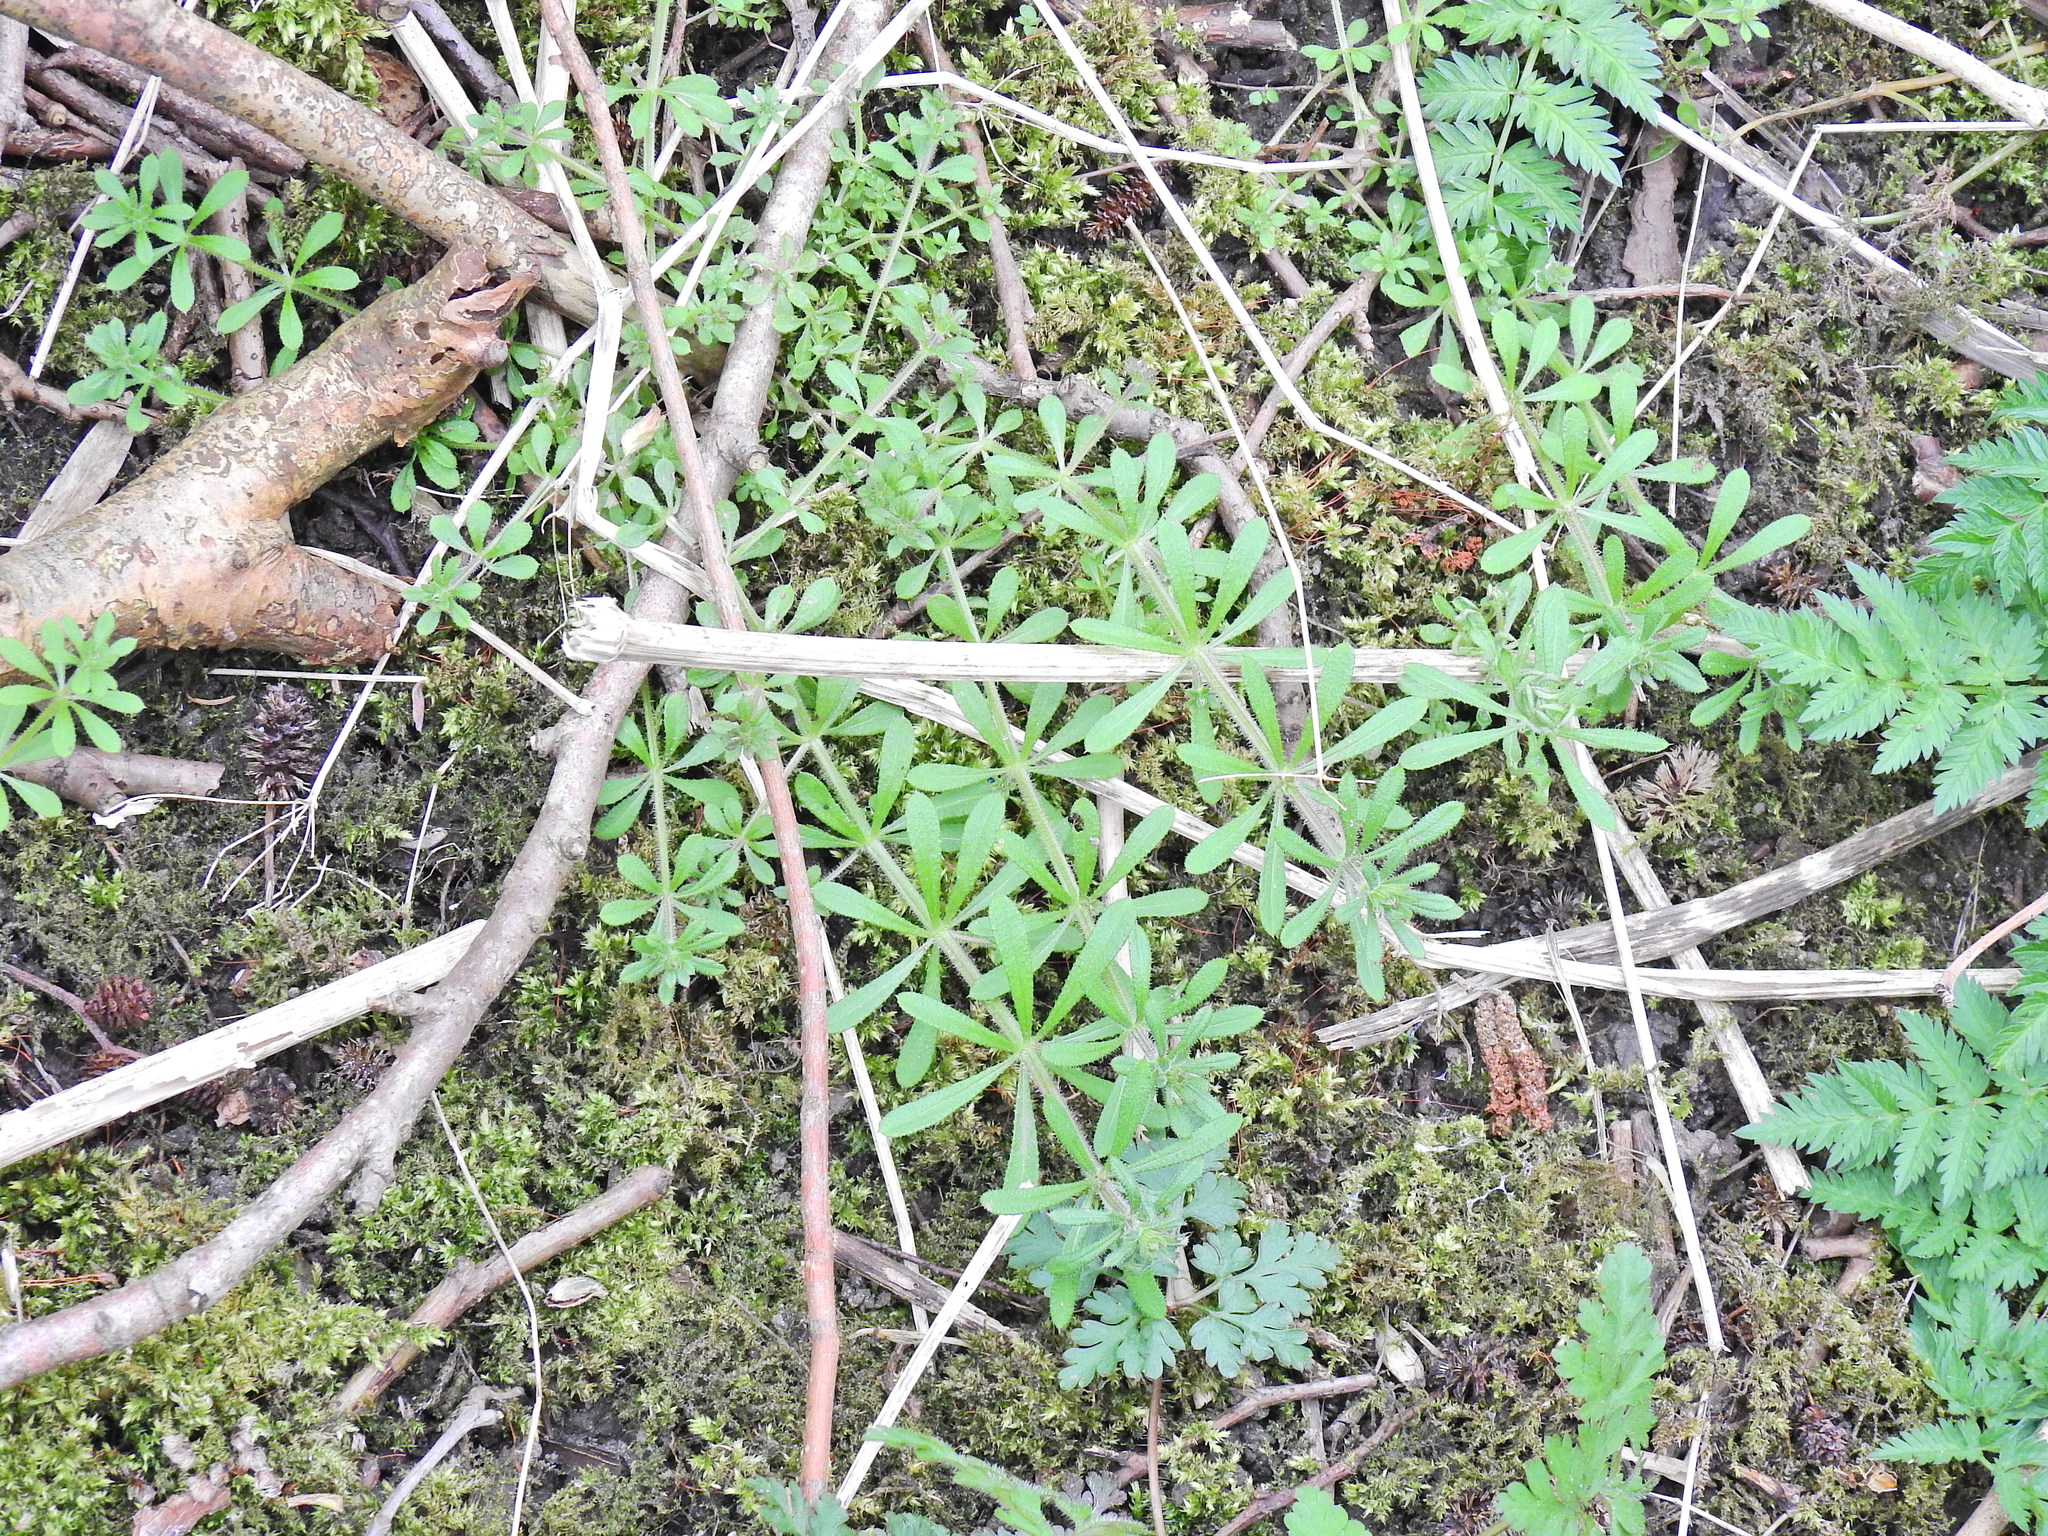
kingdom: Plantae
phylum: Tracheophyta
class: Magnoliopsida
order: Gentianales
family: Rubiaceae
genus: Galium
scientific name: Galium aparine
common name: Cleavers
